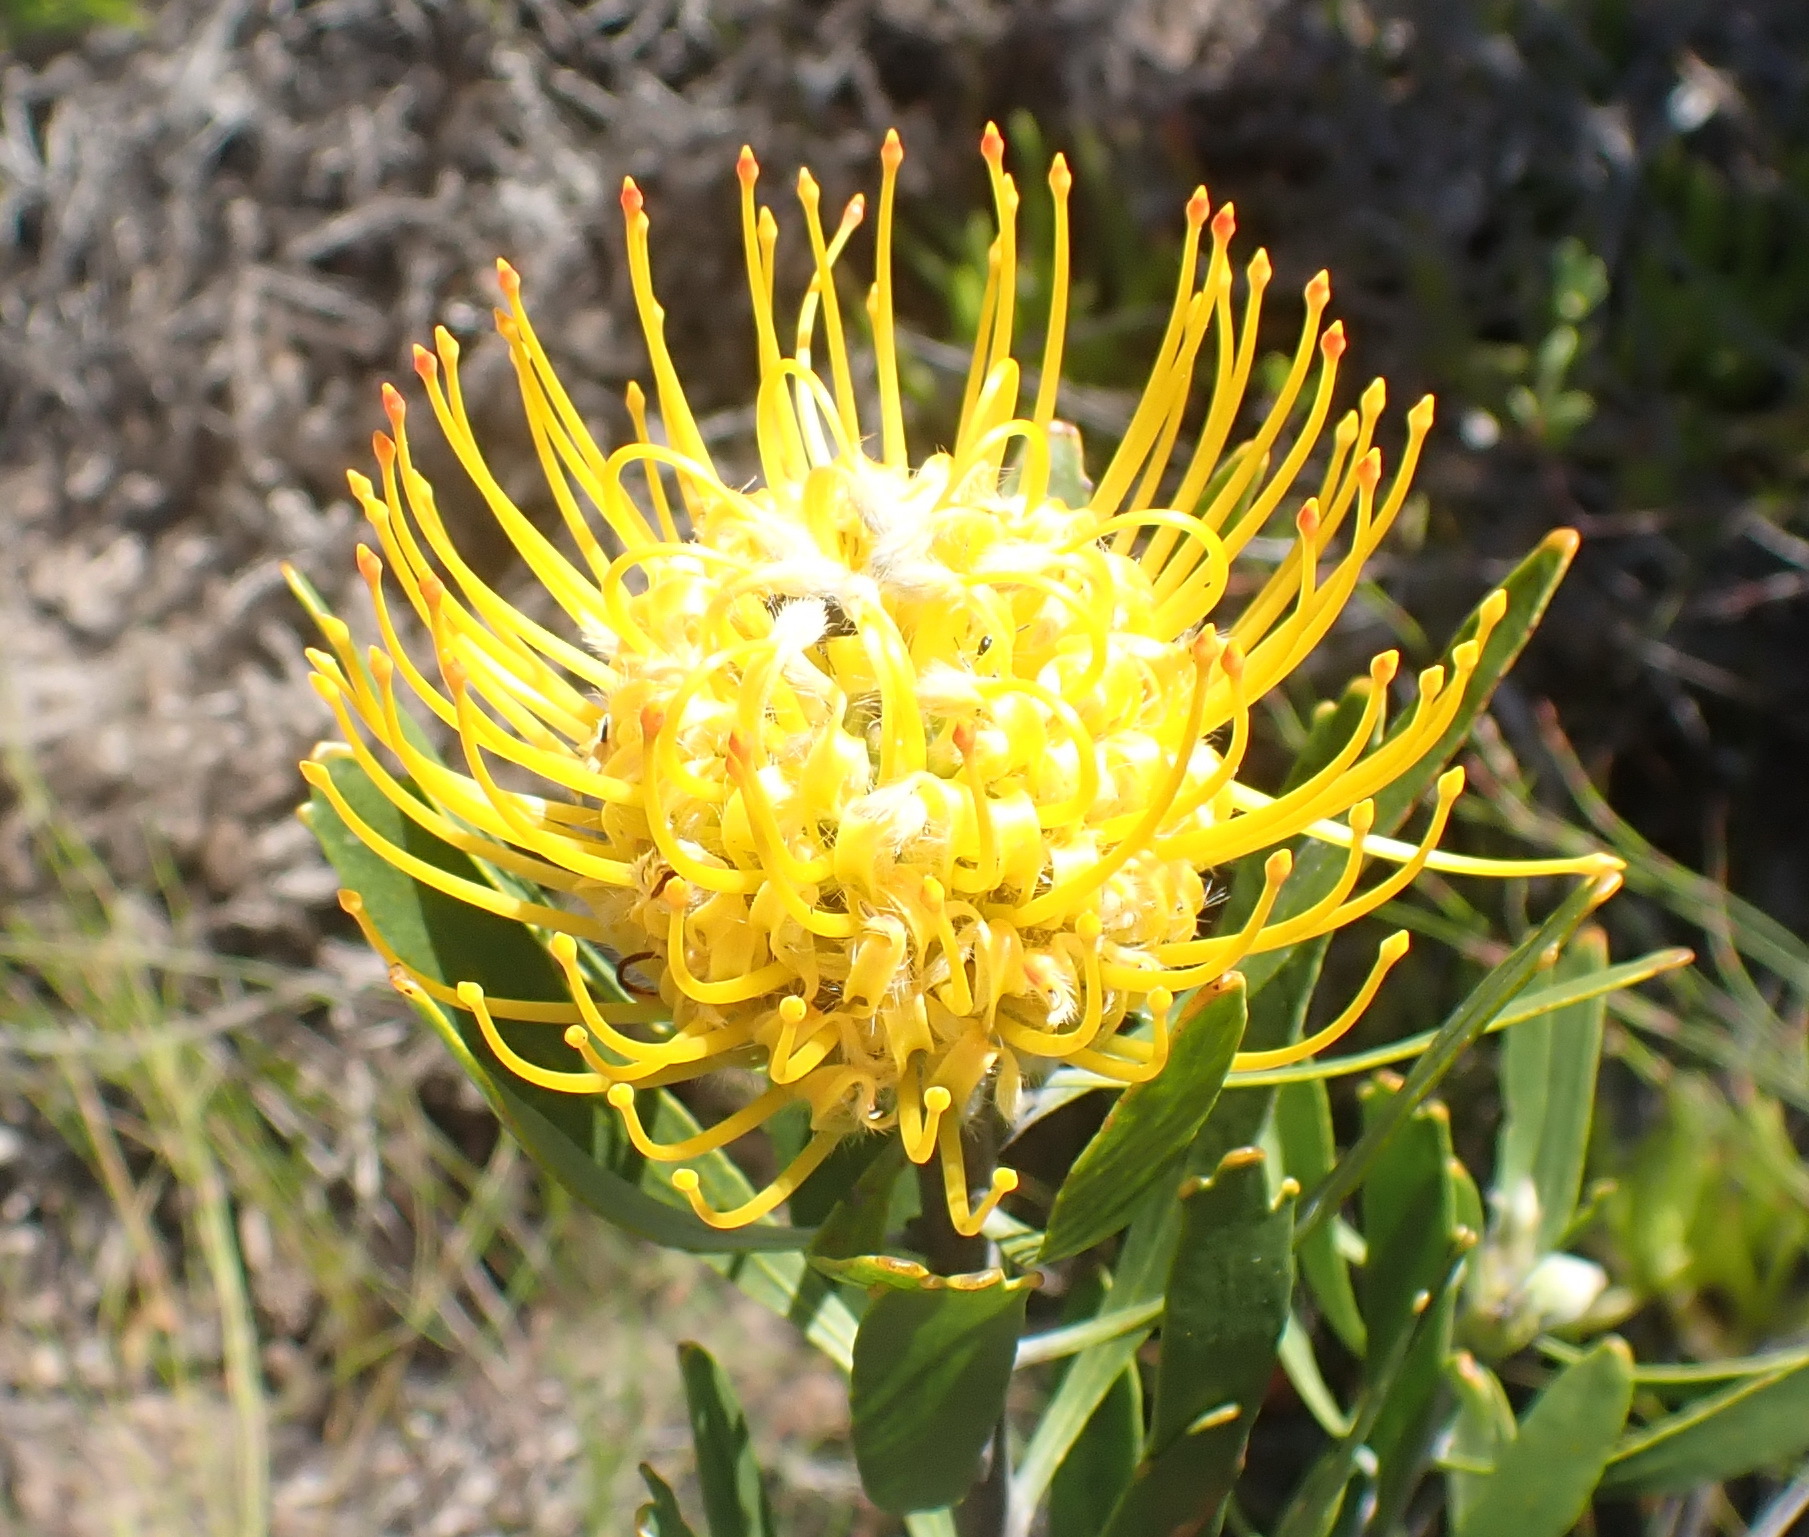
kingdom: Plantae
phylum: Tracheophyta
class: Magnoliopsida
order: Proteales
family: Proteaceae
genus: Leucospermum
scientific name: Leucospermum cuneiforme
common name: Common pincushion
